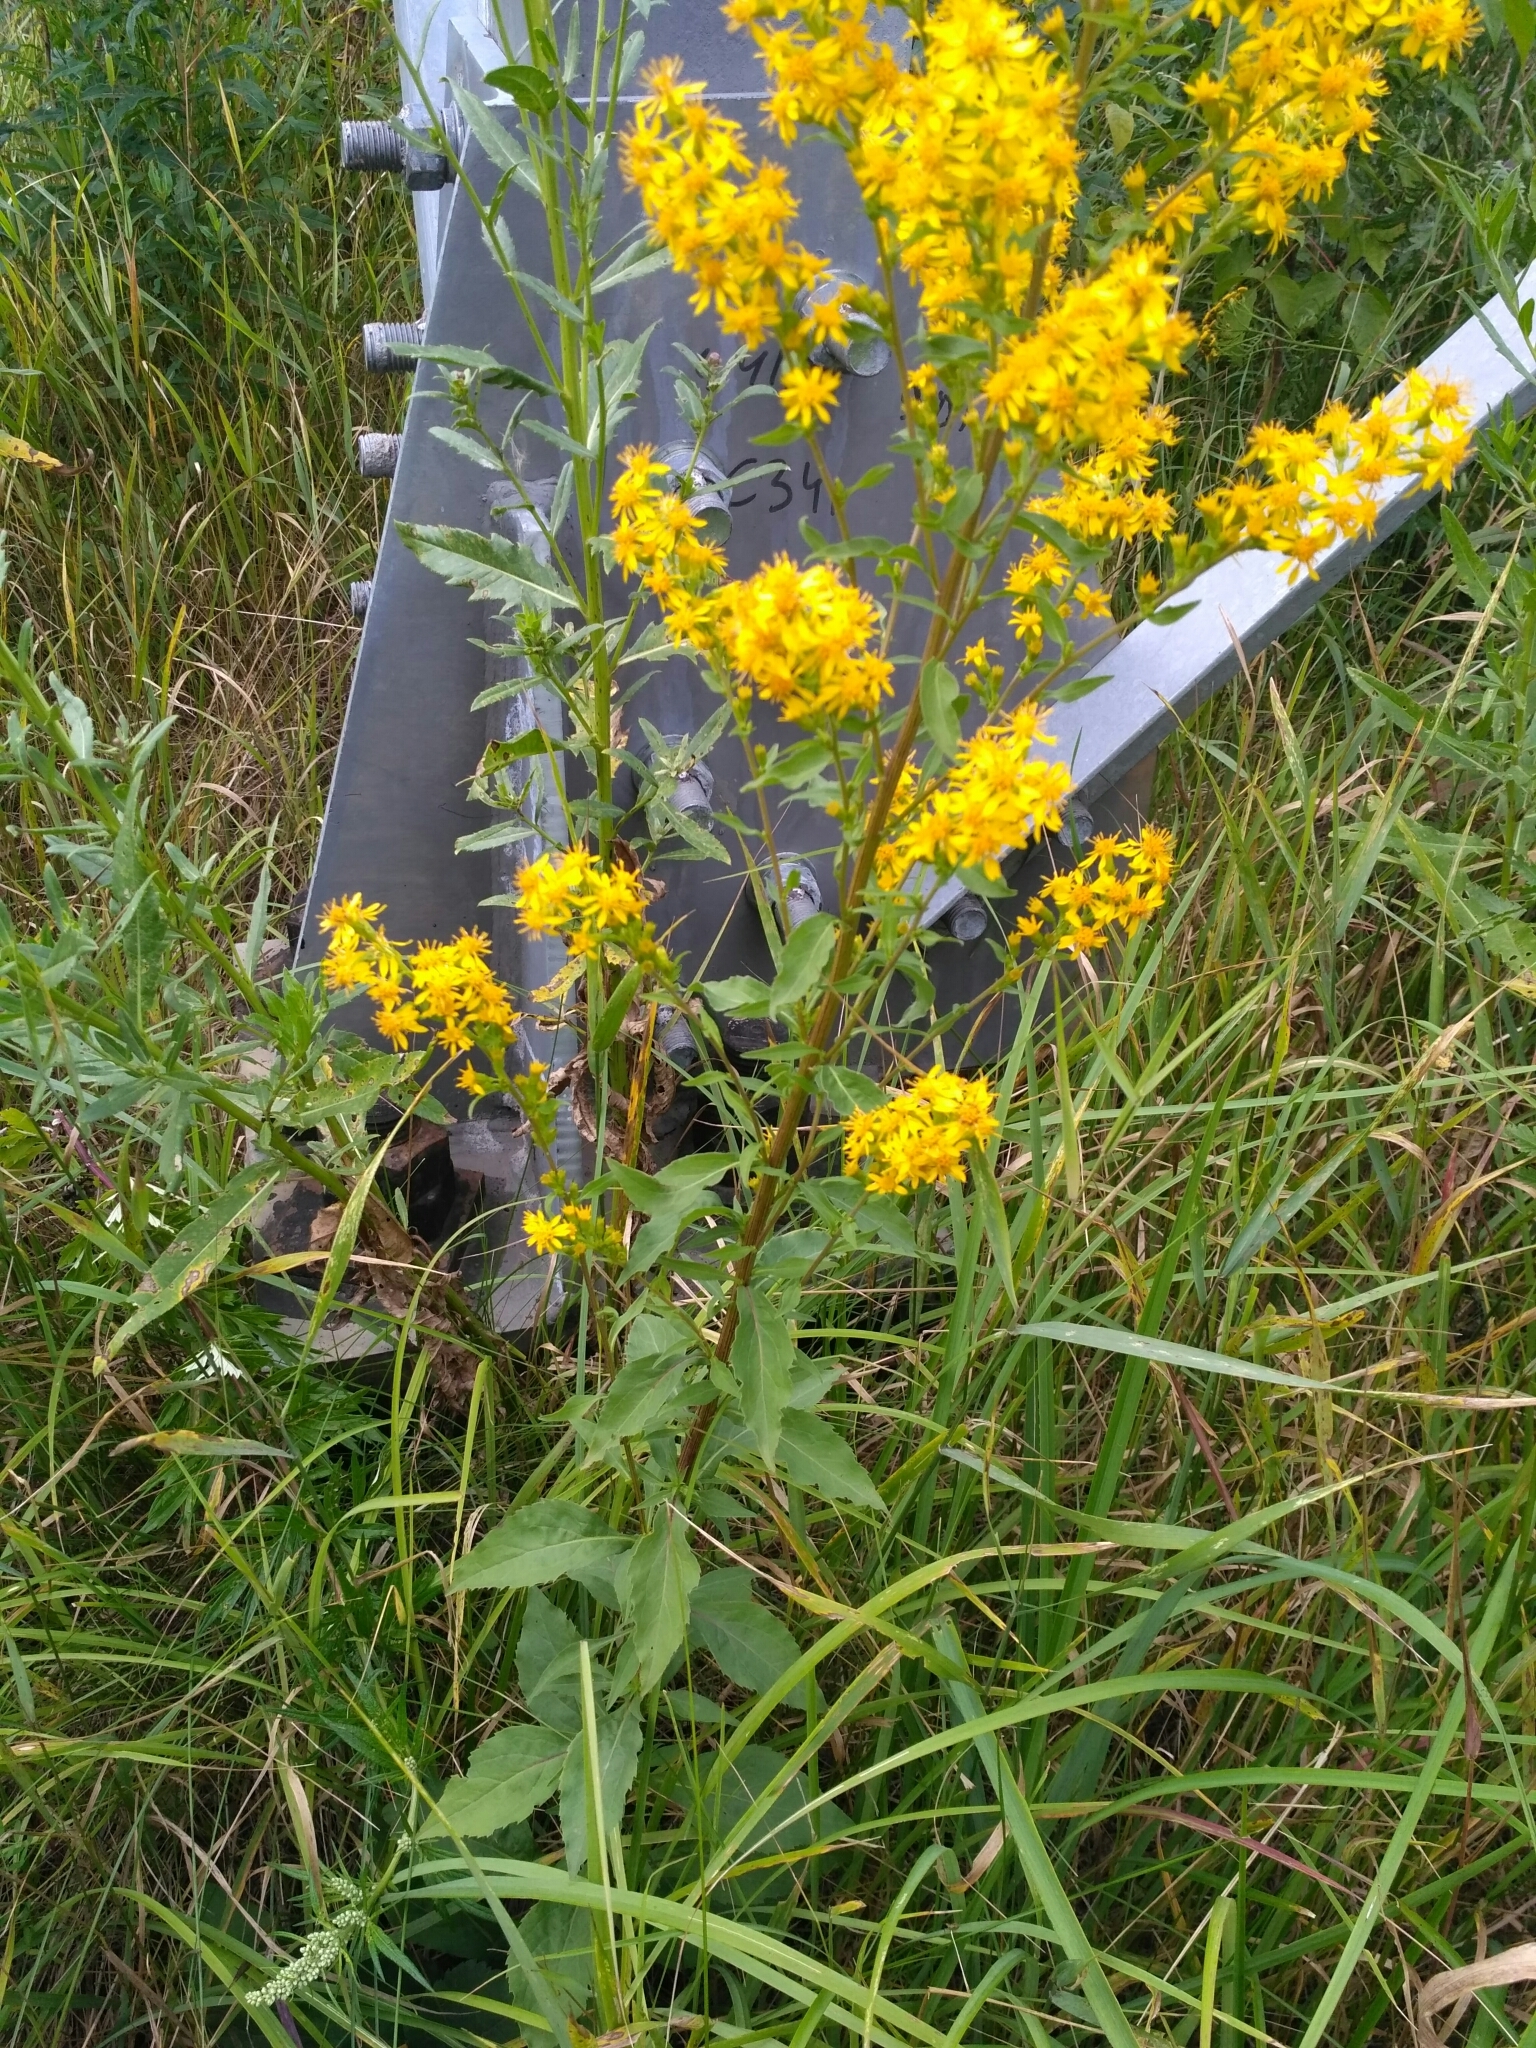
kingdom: Plantae
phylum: Tracheophyta
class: Magnoliopsida
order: Asterales
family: Asteraceae
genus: Solidago
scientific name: Solidago virgaurea
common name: Goldenrod
